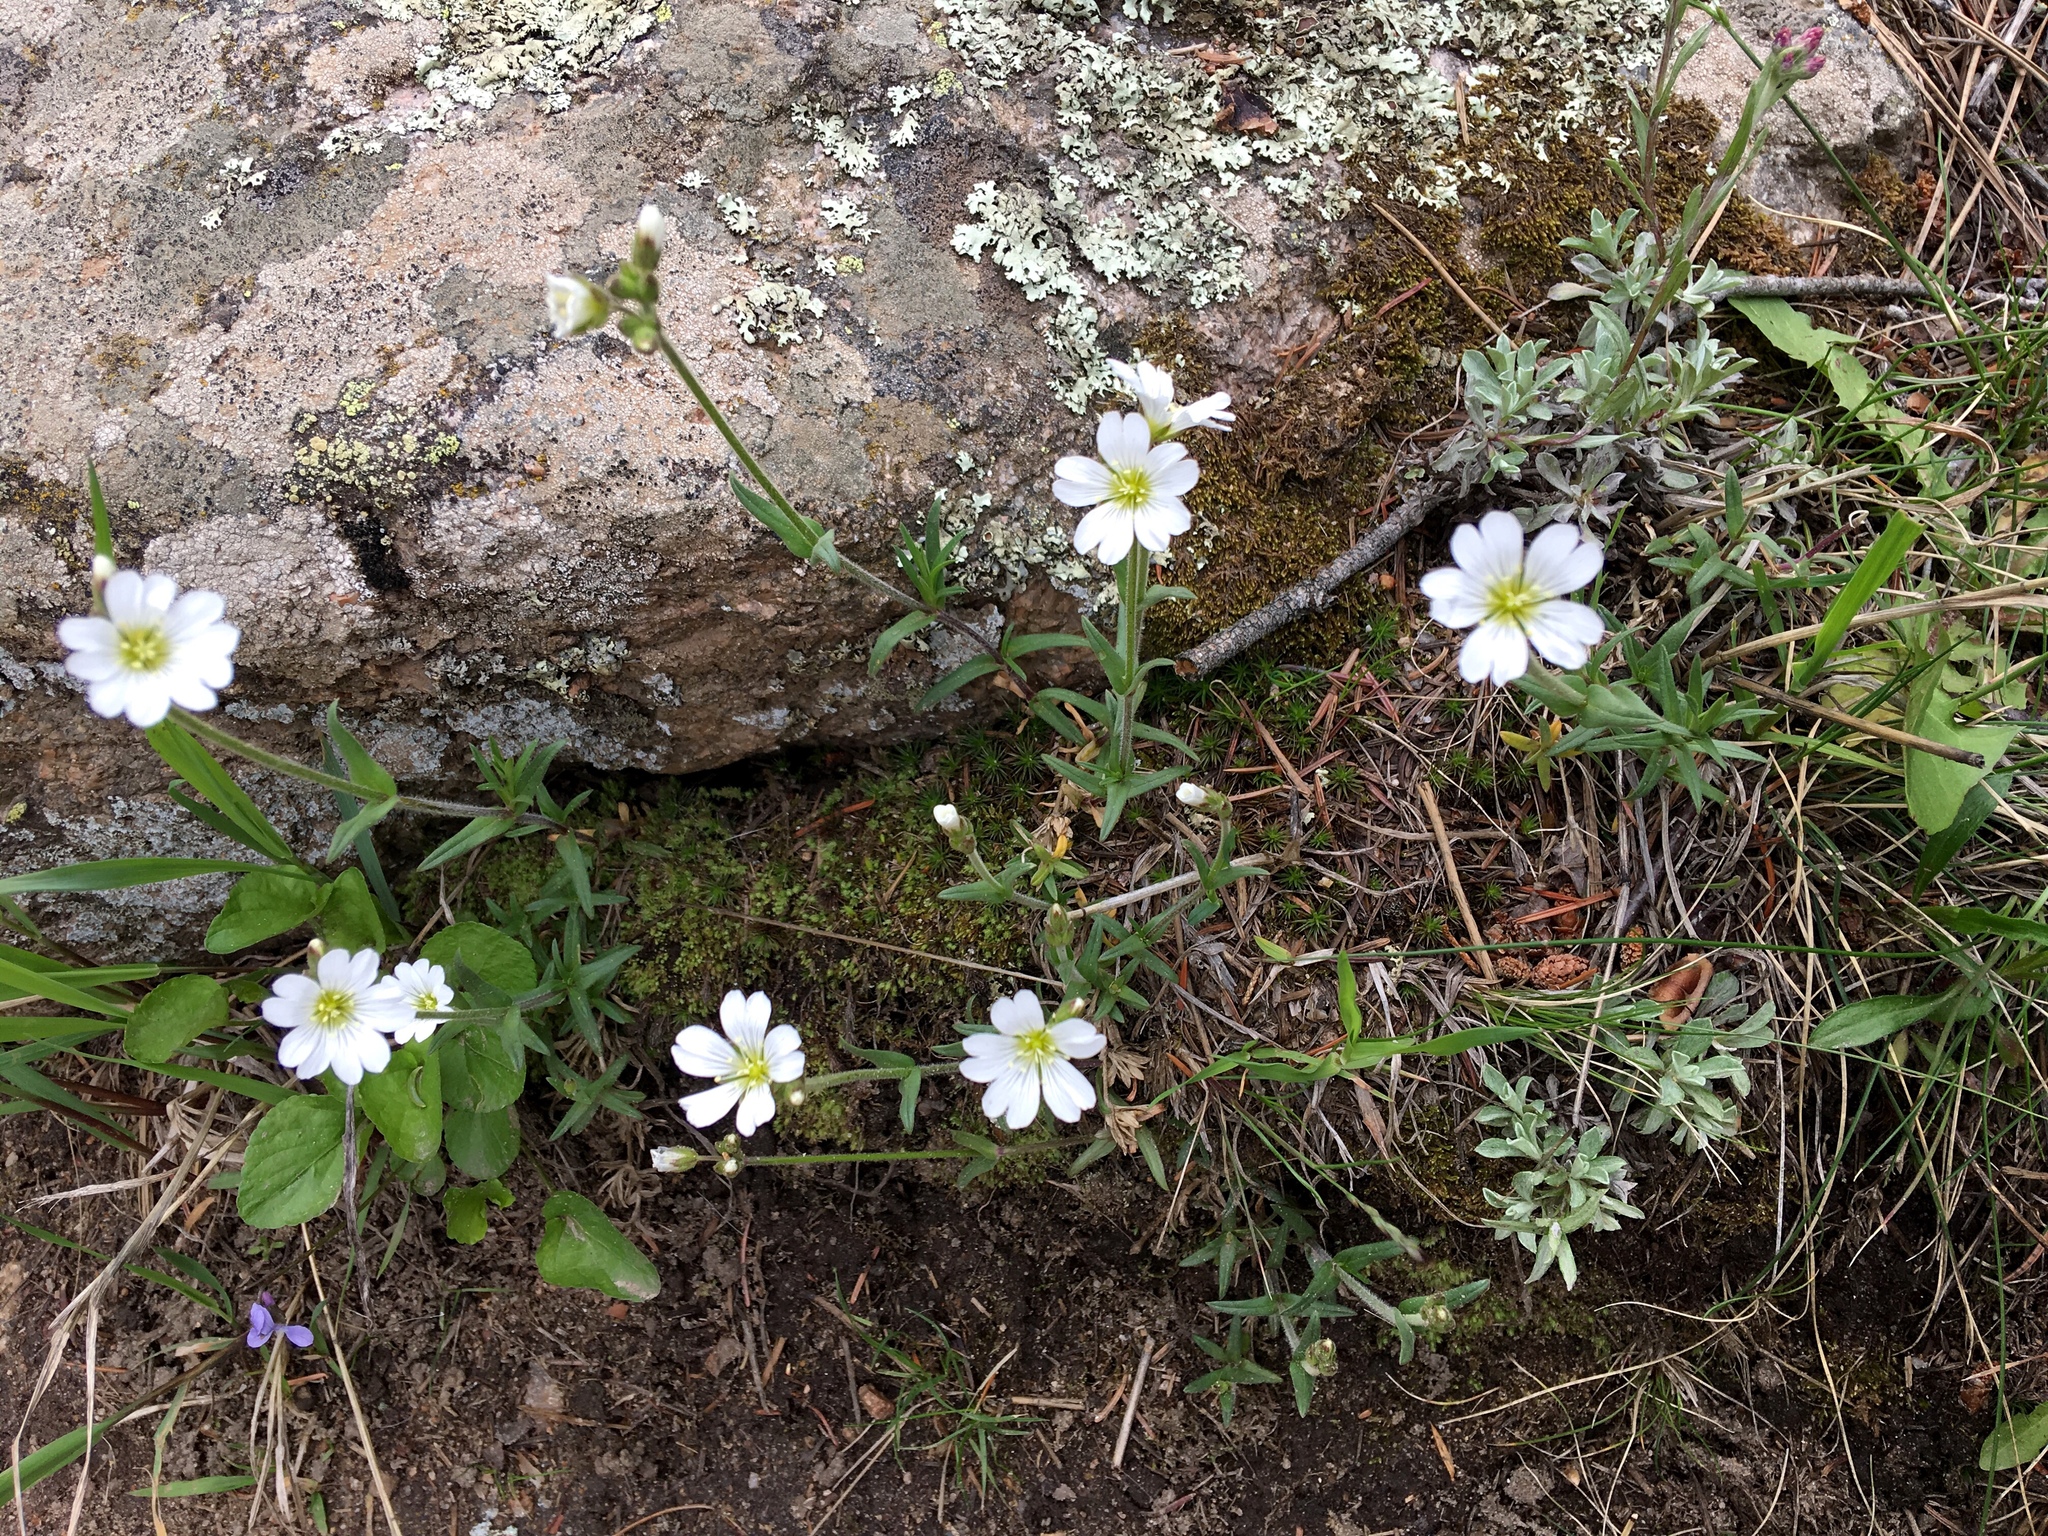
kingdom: Plantae
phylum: Tracheophyta
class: Magnoliopsida
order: Caryophyllales
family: Caryophyllaceae
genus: Cerastium
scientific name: Cerastium arvense
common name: Field mouse-ear
